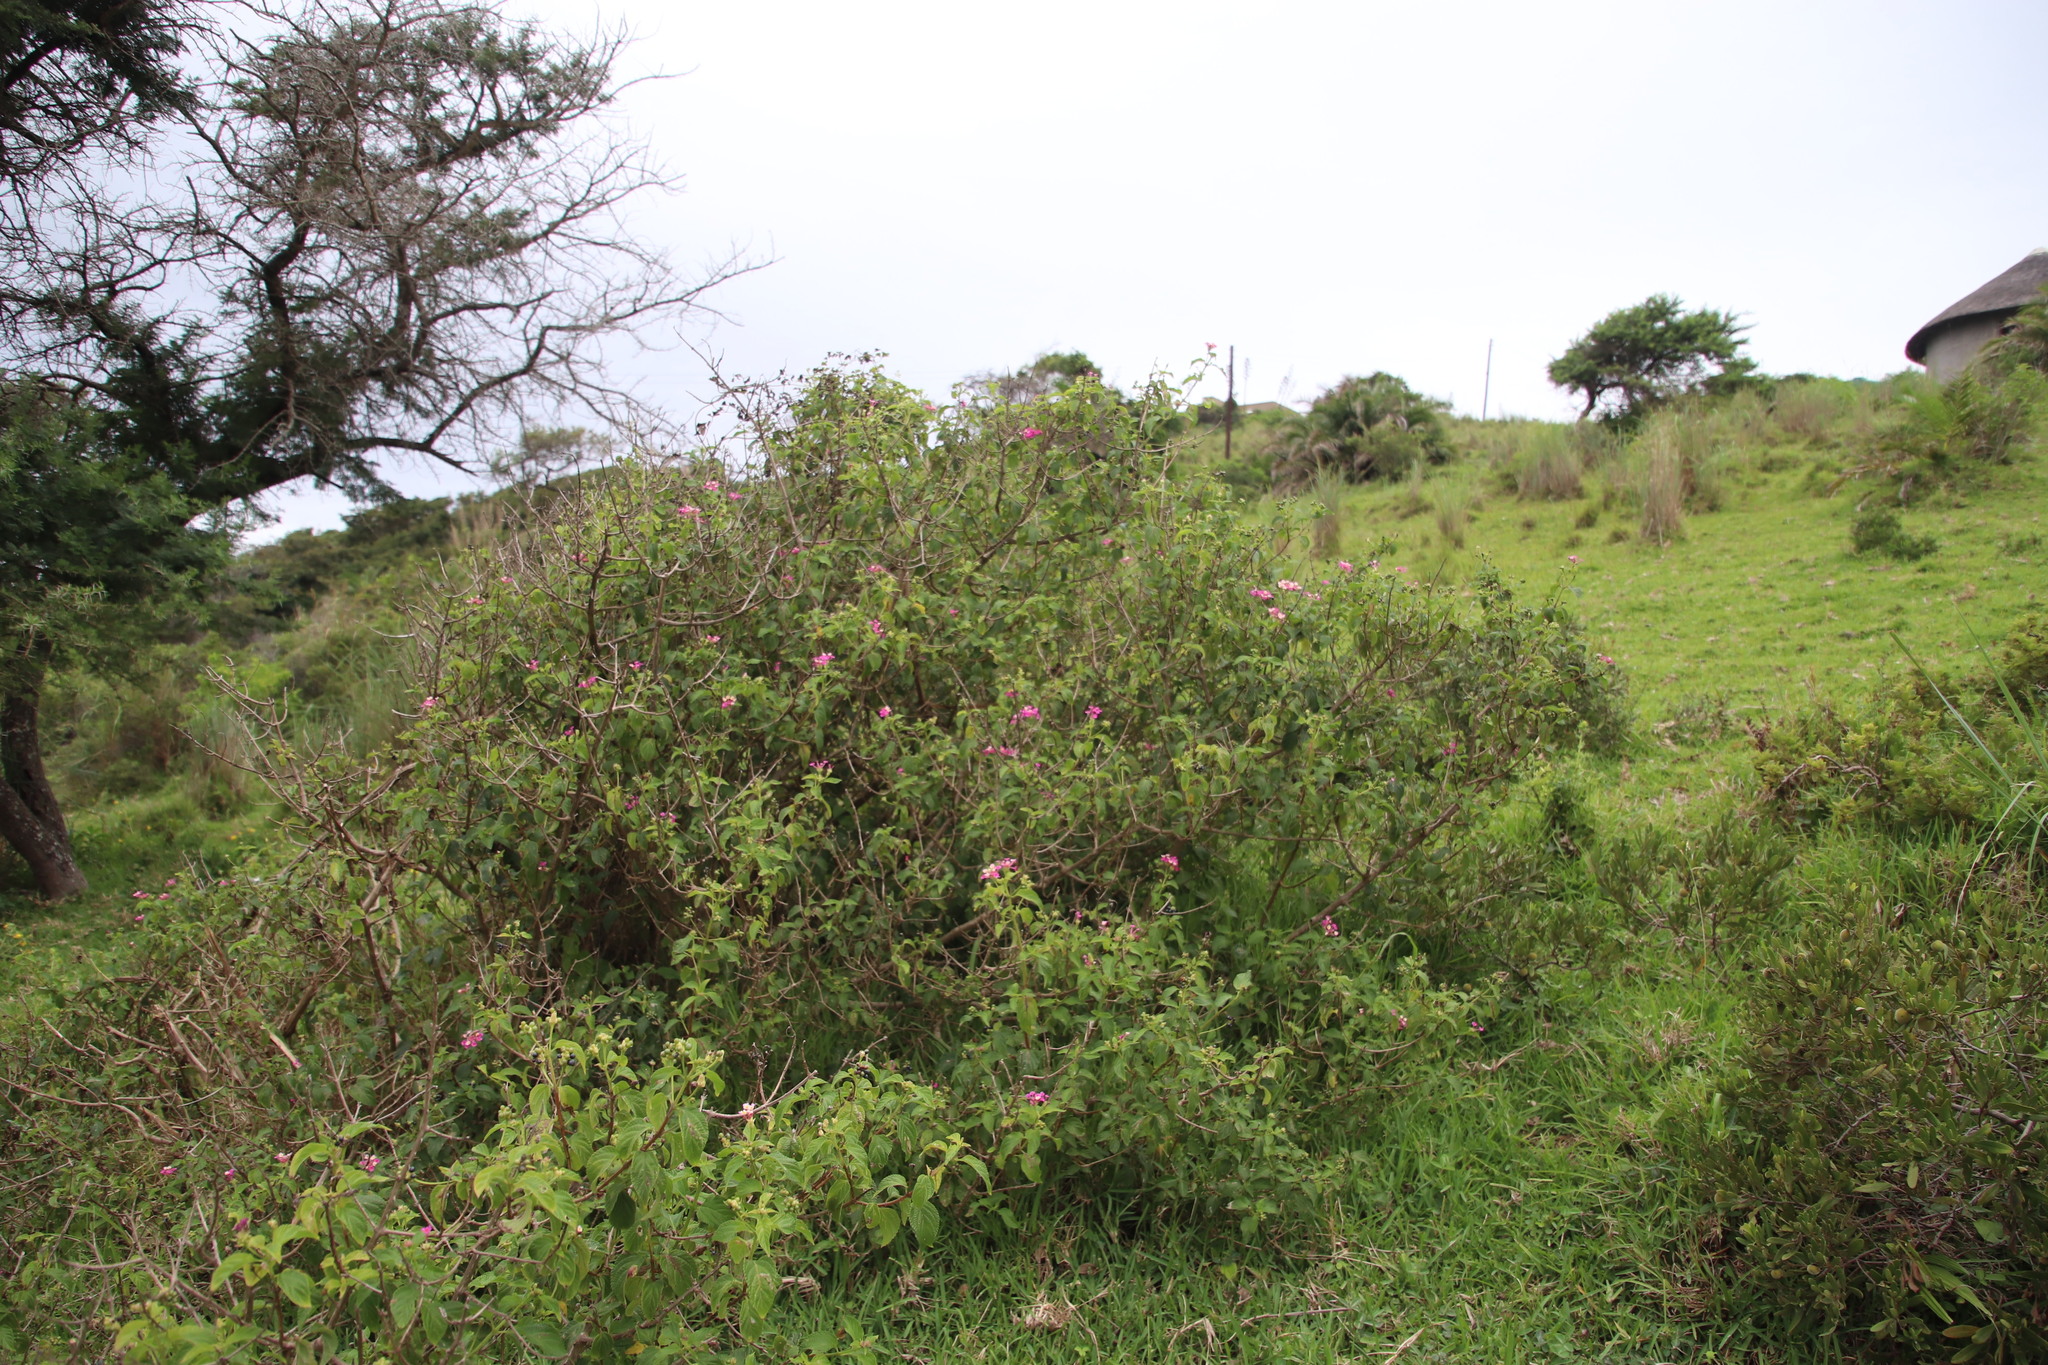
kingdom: Plantae
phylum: Tracheophyta
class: Magnoliopsida
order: Lamiales
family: Verbenaceae
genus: Lantana
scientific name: Lantana camara
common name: Lantana
